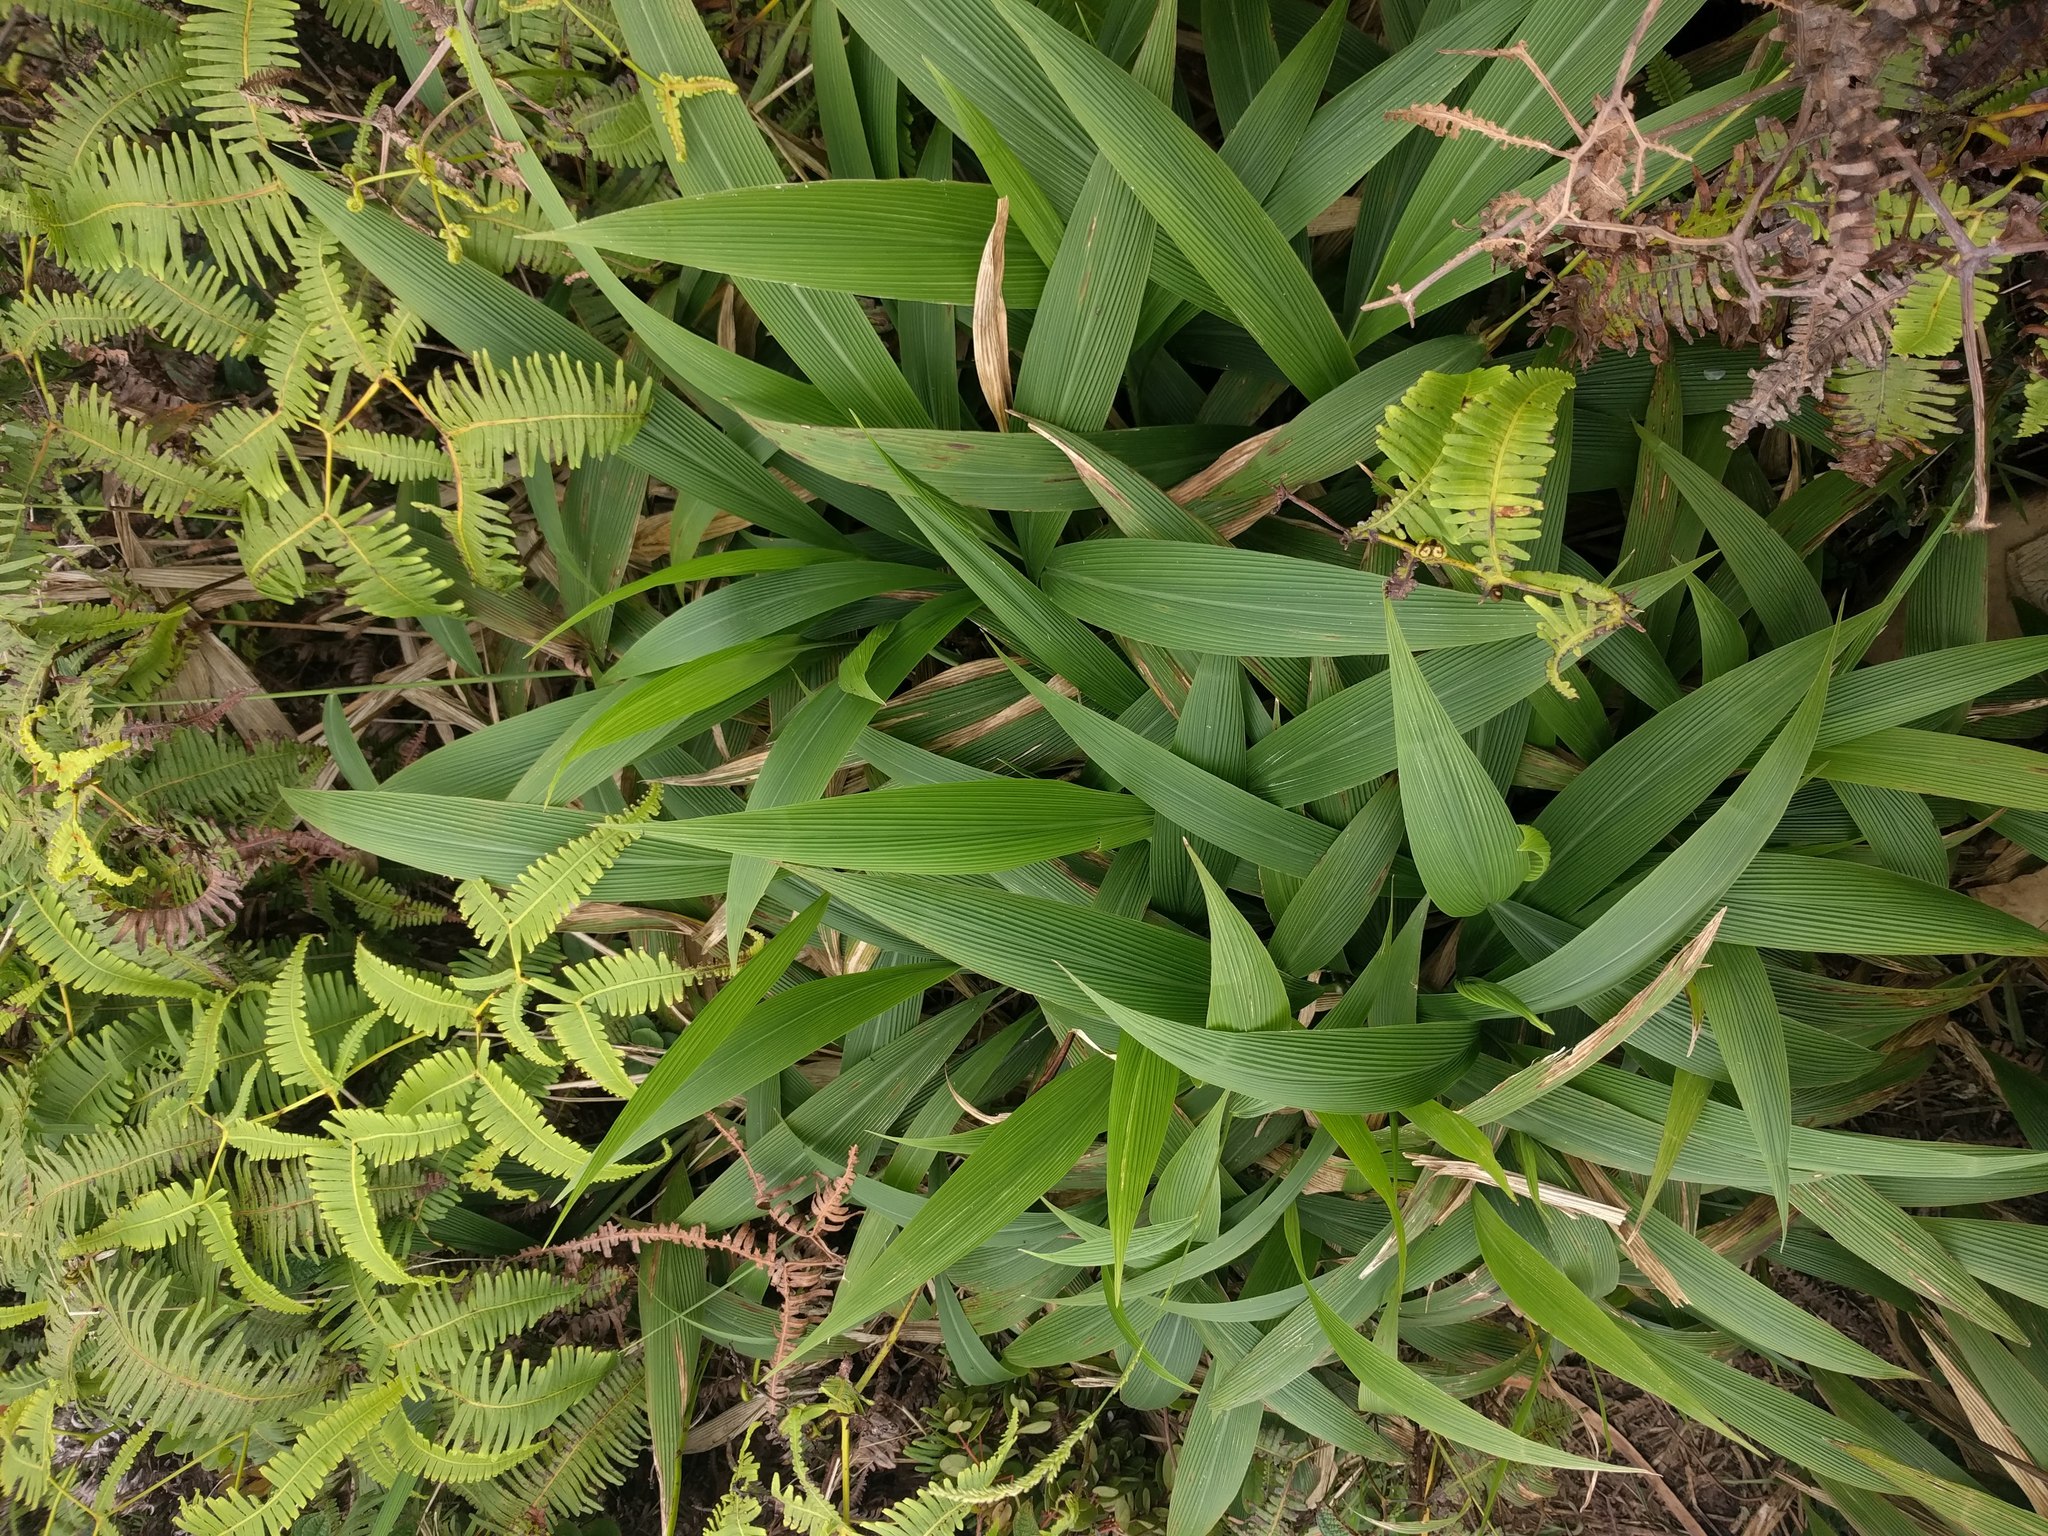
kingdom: Plantae
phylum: Tracheophyta
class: Liliopsida
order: Poales
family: Poaceae
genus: Setaria
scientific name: Setaria palmifolia
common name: Broadleaved bristlegrass
